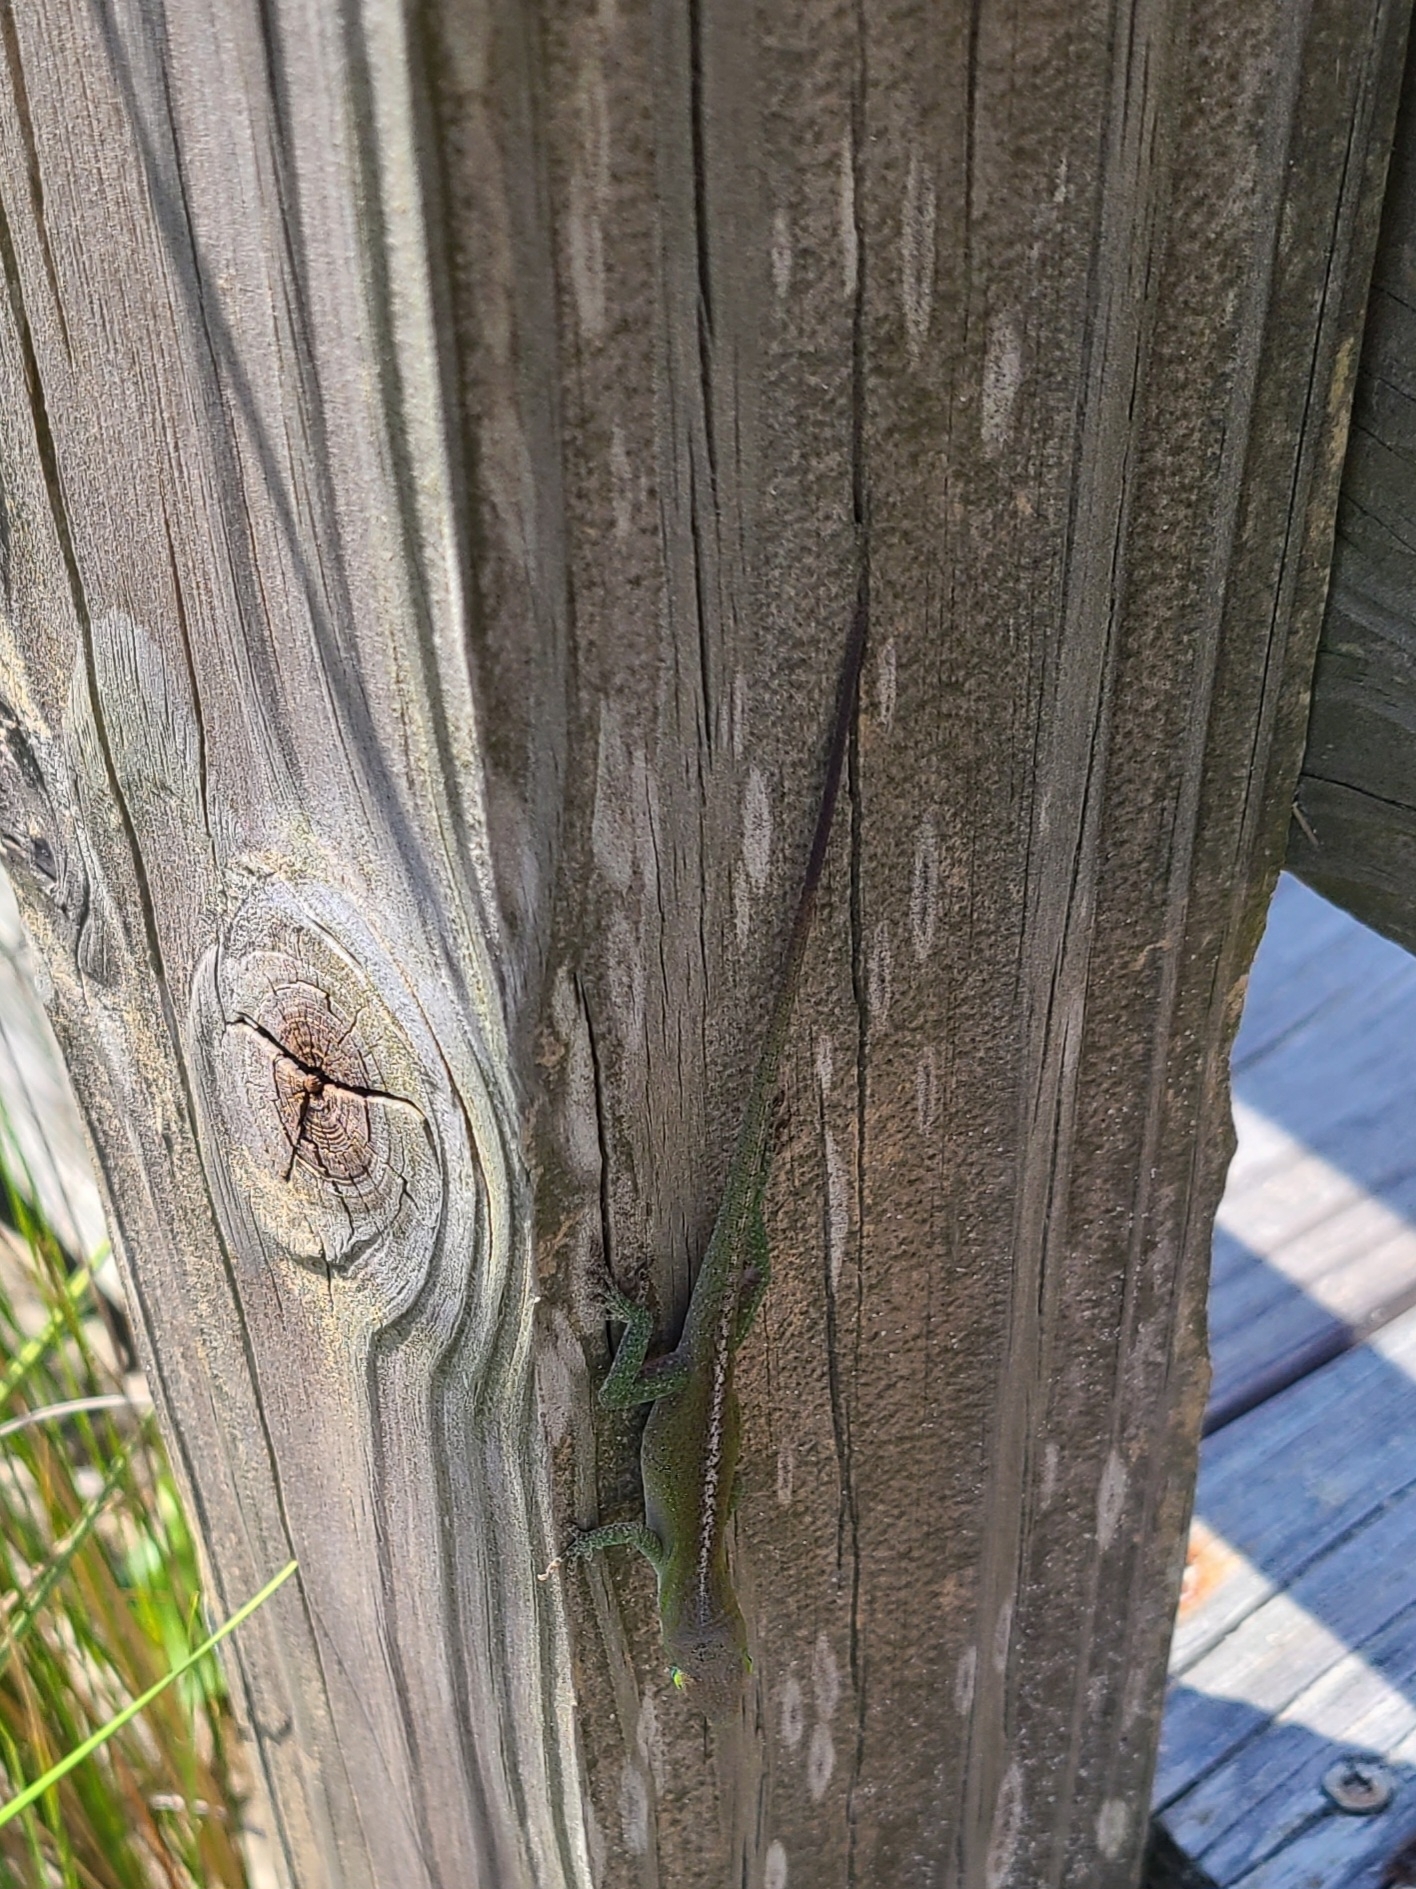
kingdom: Animalia
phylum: Chordata
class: Squamata
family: Dactyloidae
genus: Anolis
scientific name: Anolis carolinensis
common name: Green anole
